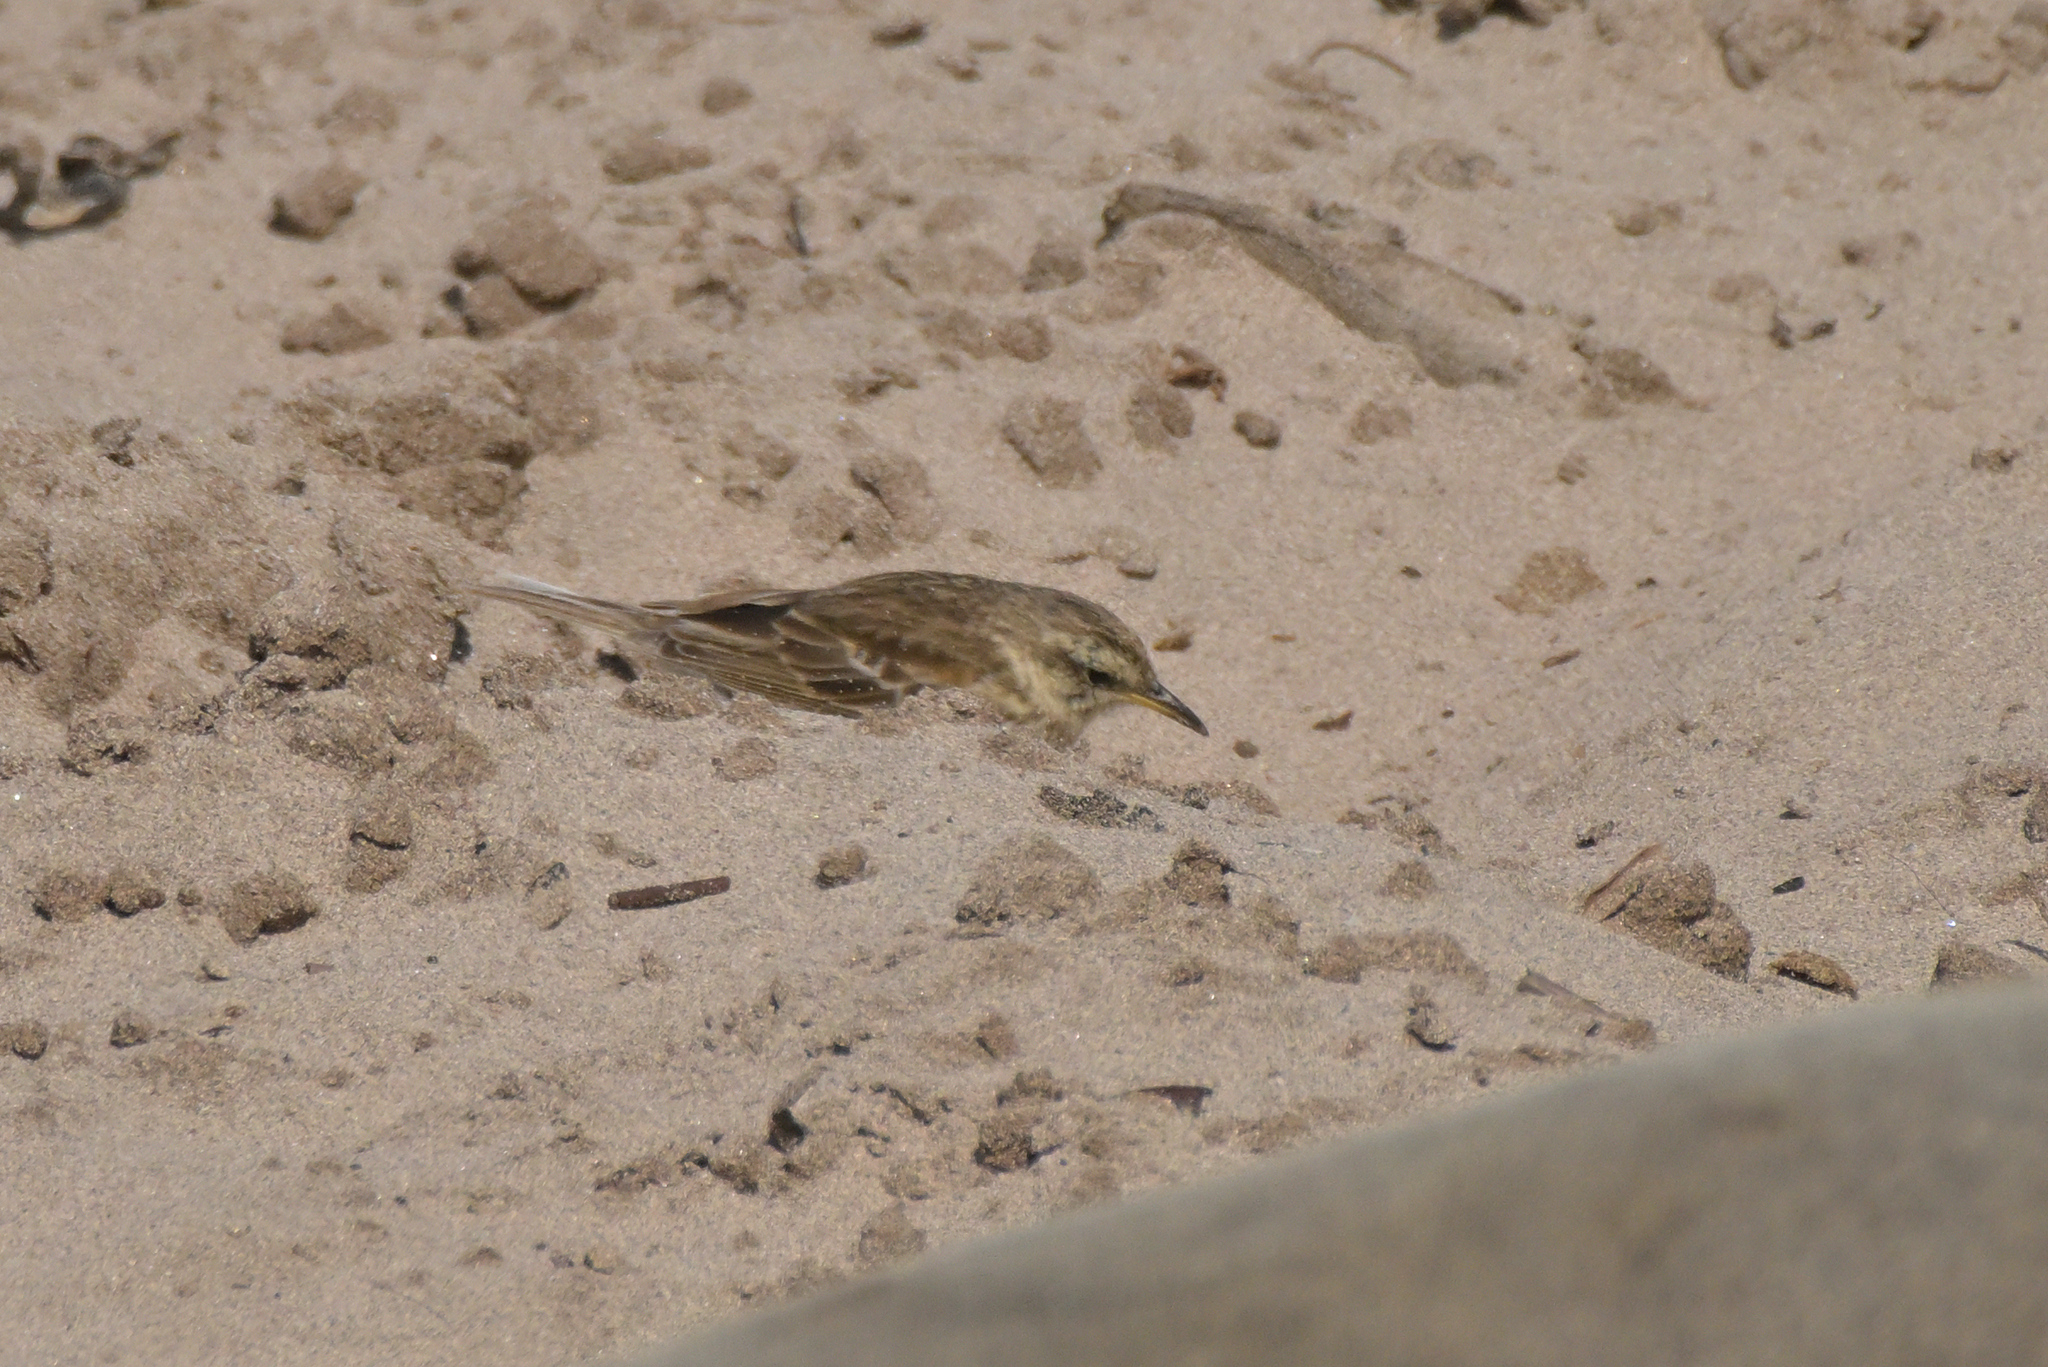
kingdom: Animalia
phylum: Chordata
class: Aves
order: Passeriformes
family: Motacillidae
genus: Anthus
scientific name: Anthus novaeseelandiae
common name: New zealand pipit
